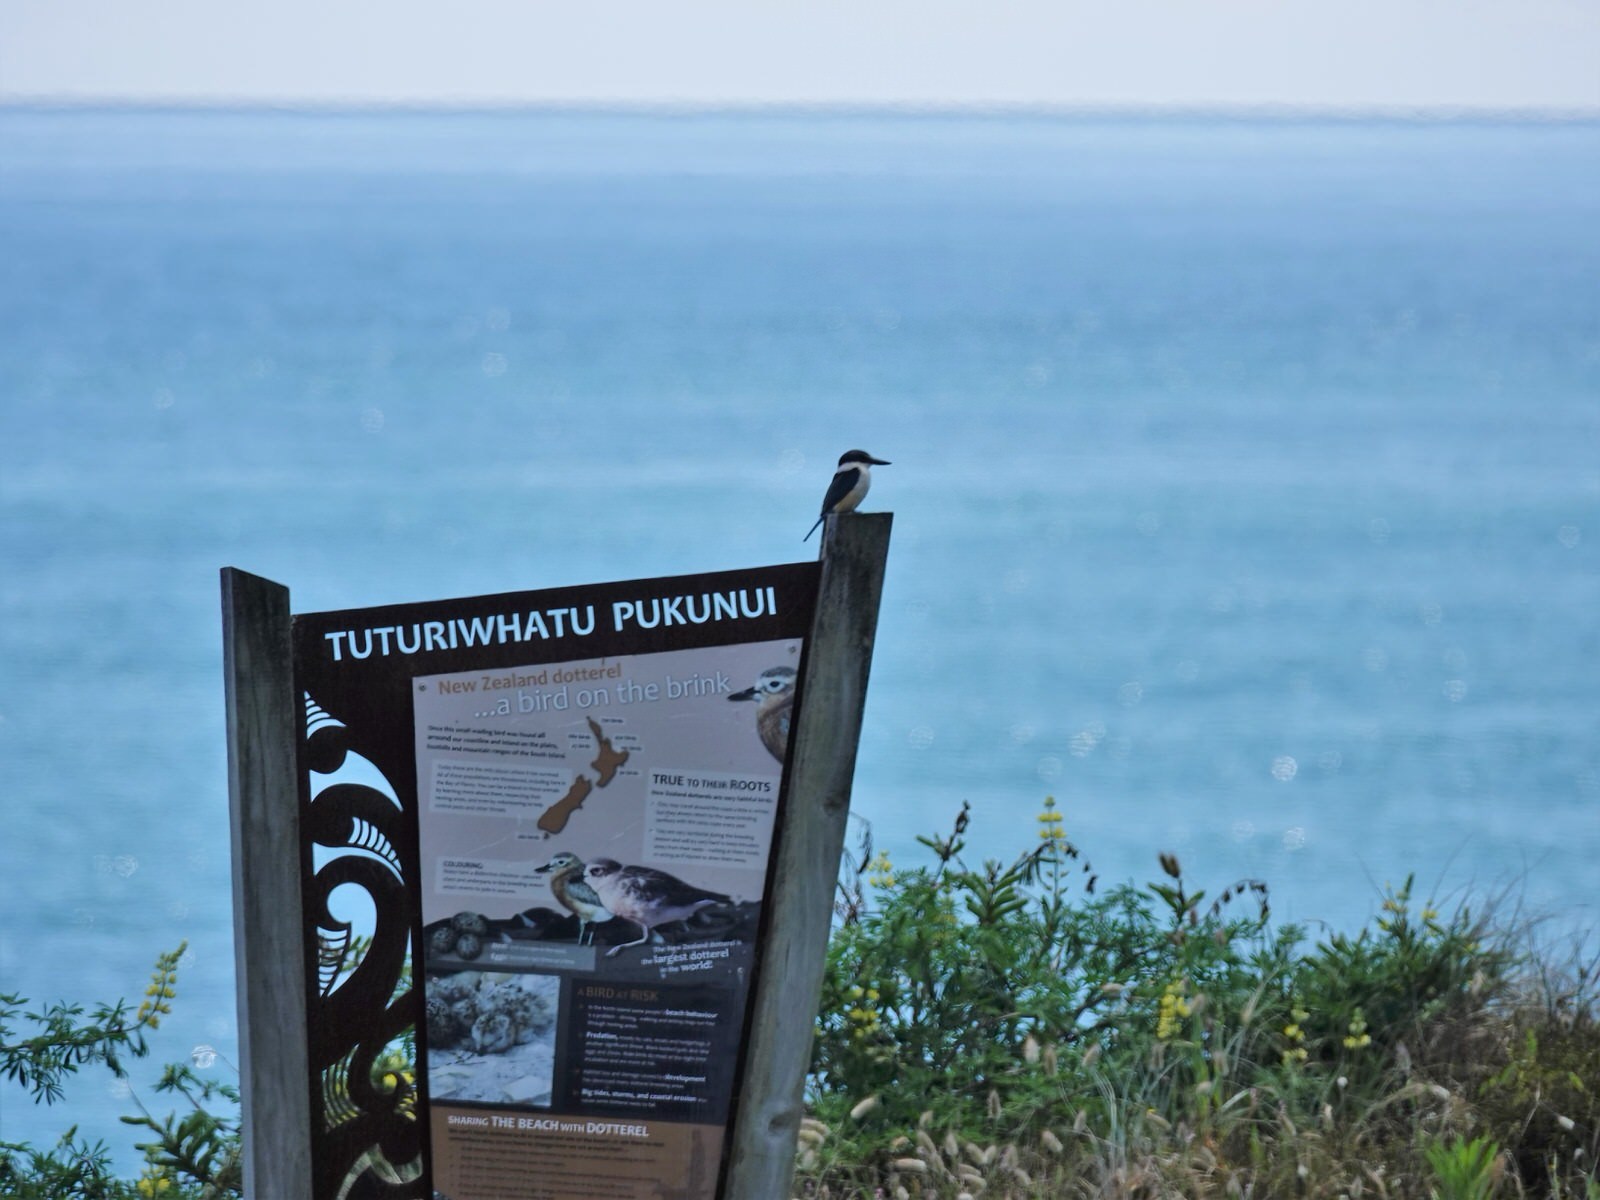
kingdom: Animalia
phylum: Chordata
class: Aves
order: Coraciiformes
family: Alcedinidae
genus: Todiramphus
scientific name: Todiramphus sanctus
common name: Sacred kingfisher
